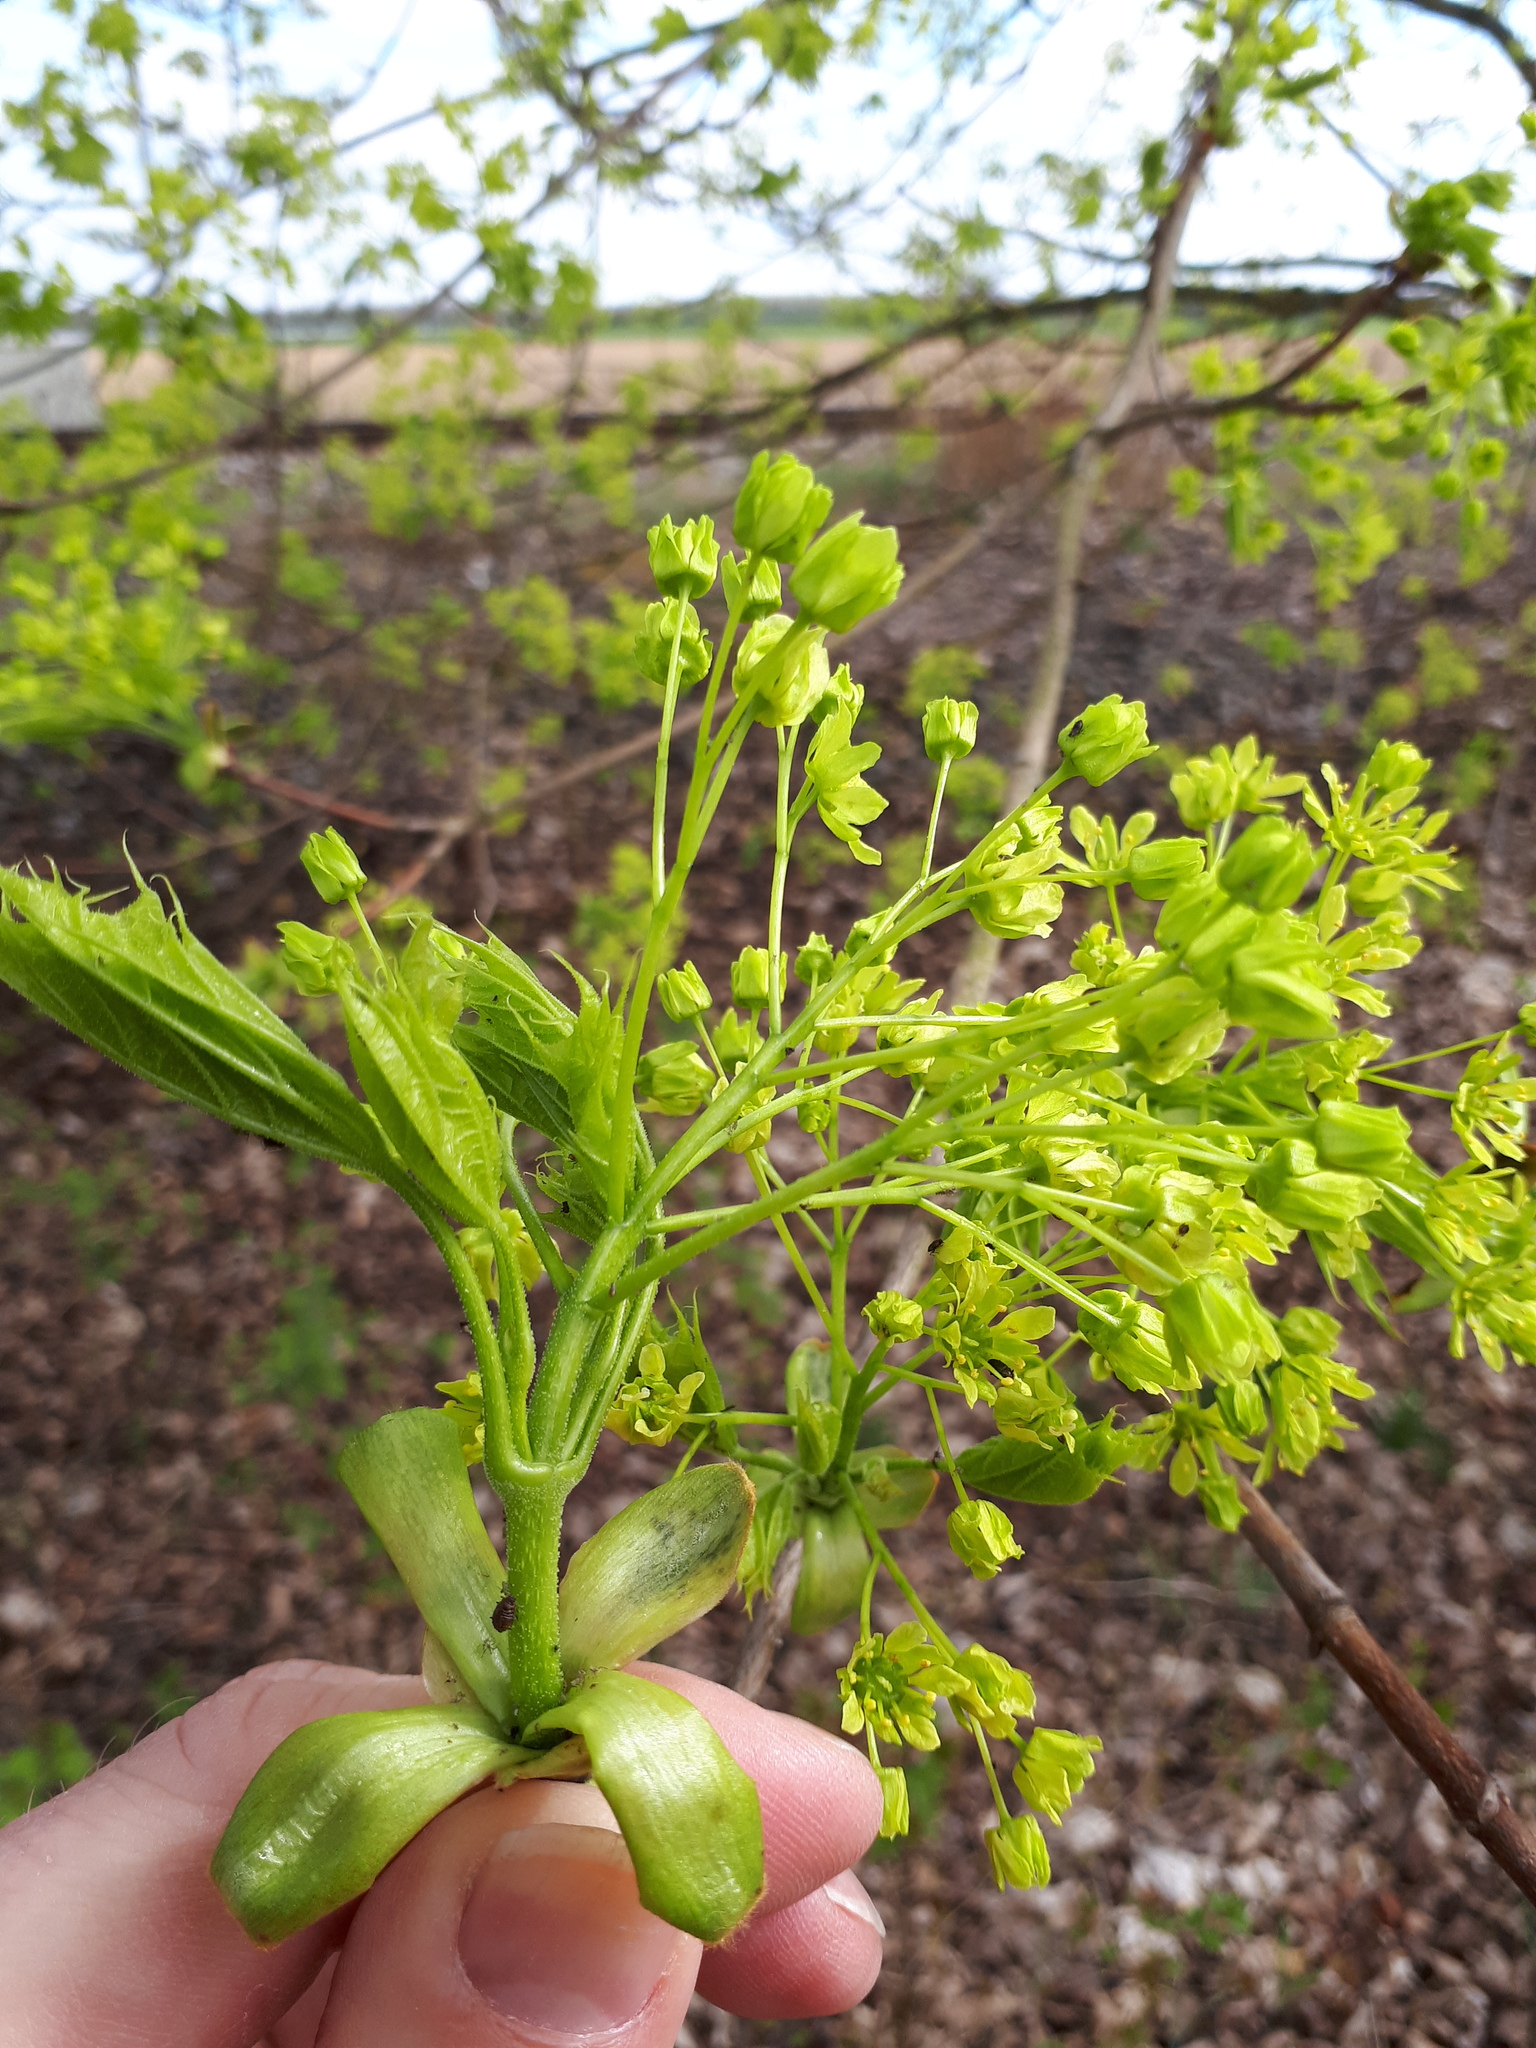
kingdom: Plantae
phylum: Tracheophyta
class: Magnoliopsida
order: Sapindales
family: Sapindaceae
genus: Acer
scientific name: Acer platanoides
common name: Norway maple
